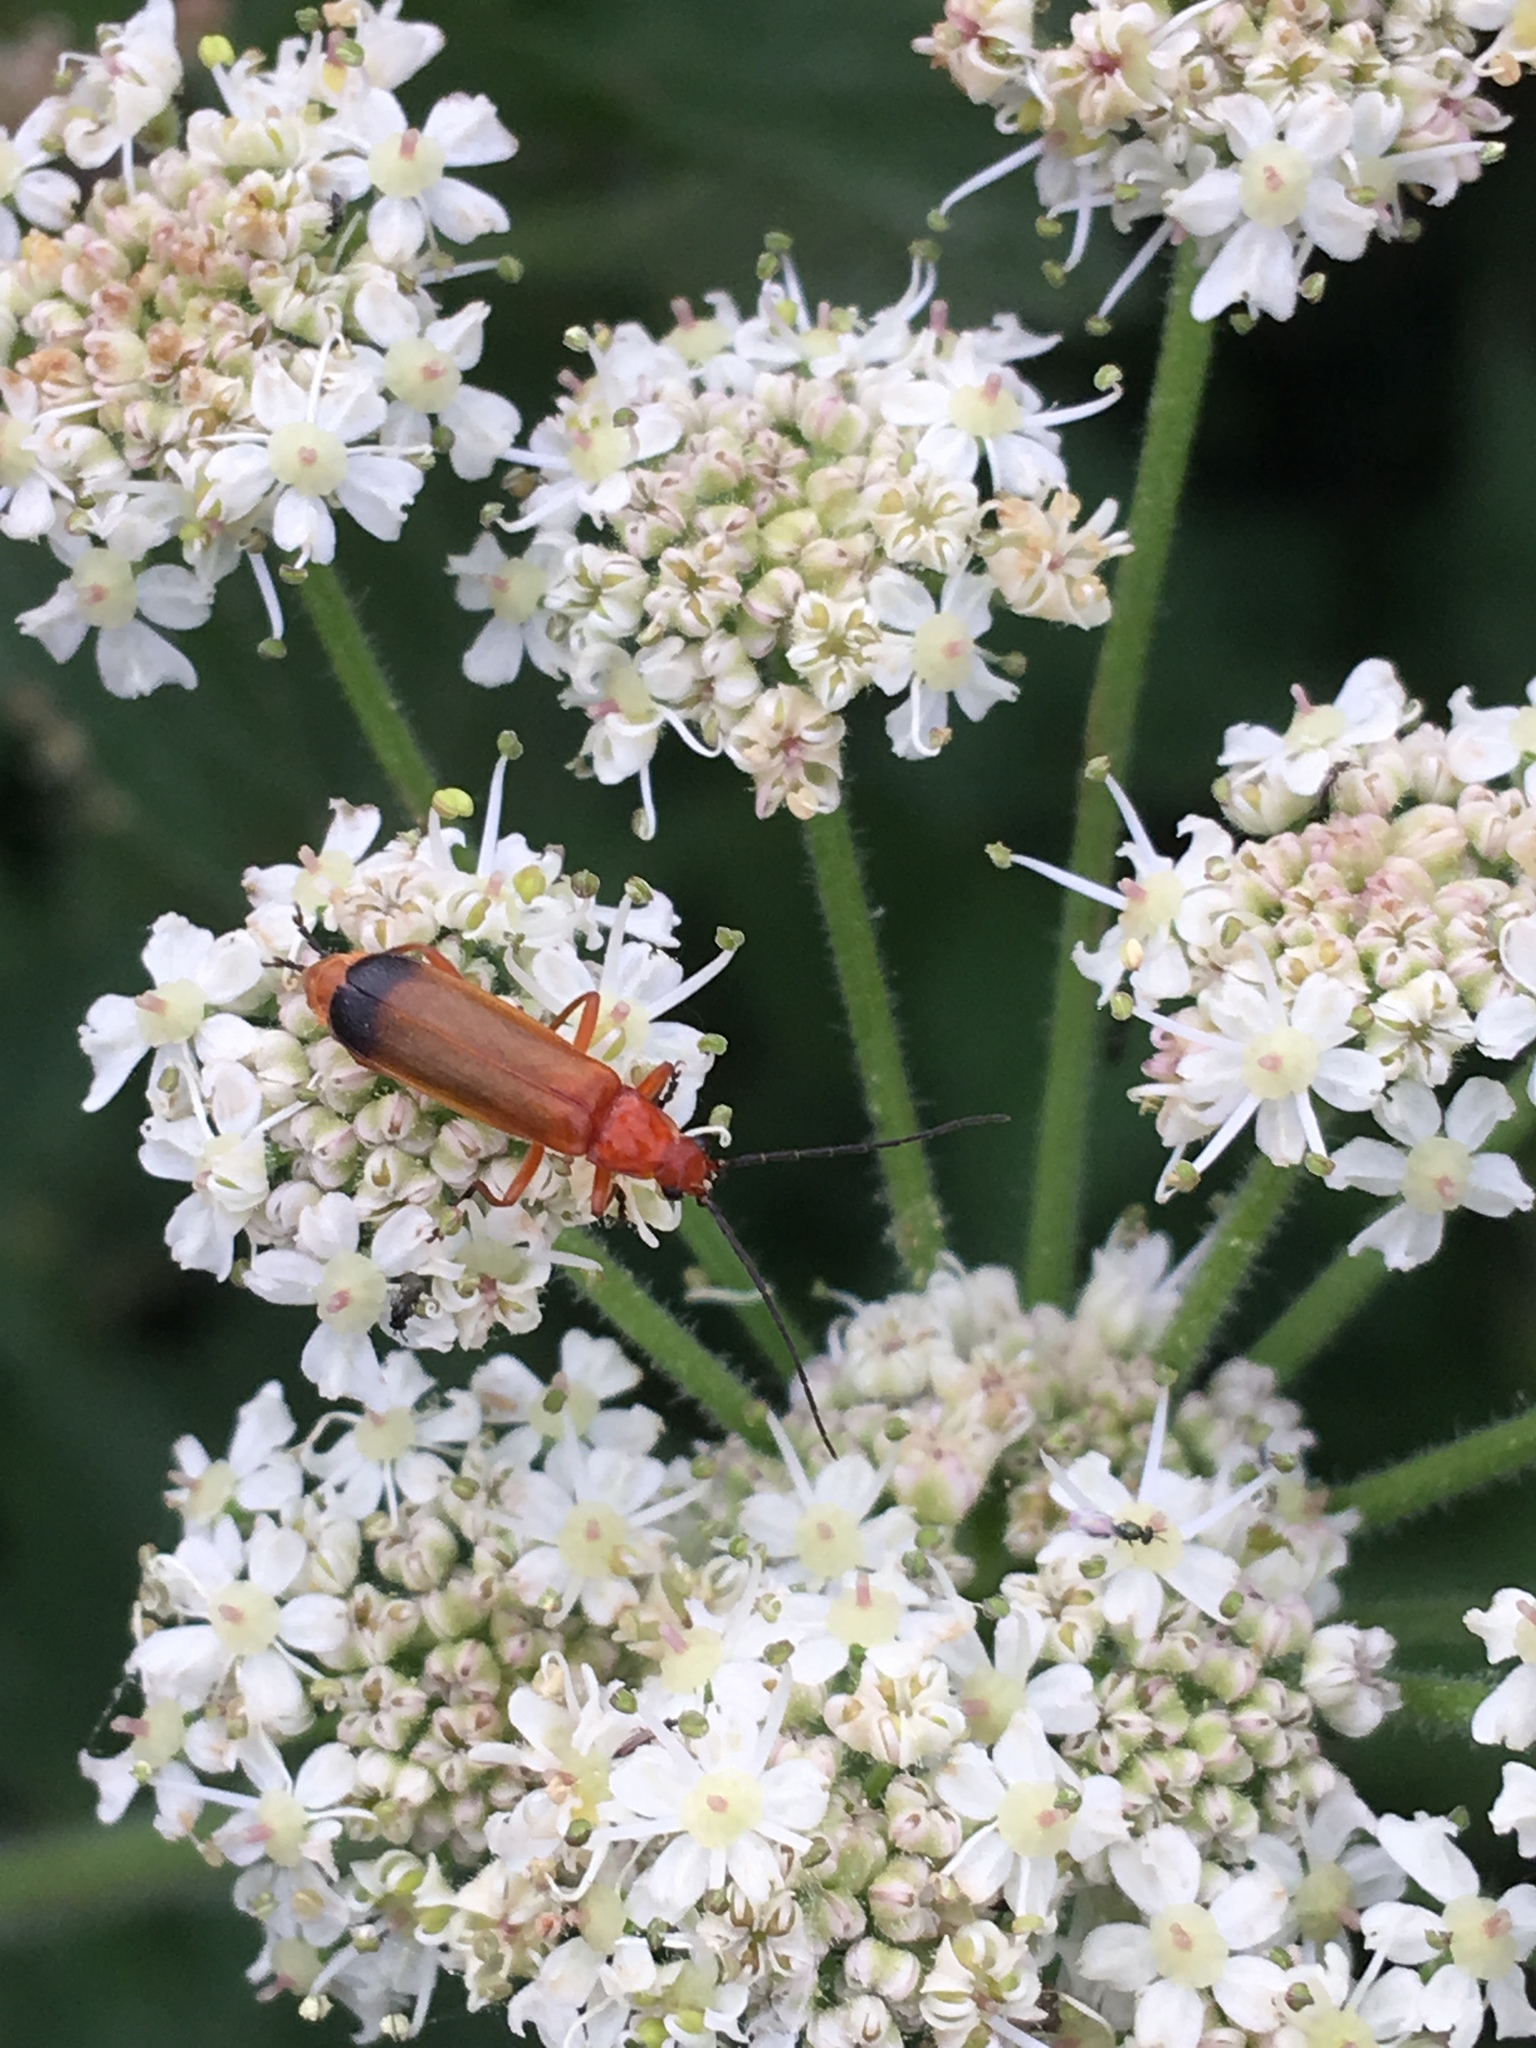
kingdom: Animalia
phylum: Arthropoda
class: Insecta
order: Coleoptera
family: Cantharidae
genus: Rhagonycha
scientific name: Rhagonycha fulva
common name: Common red soldier beetle
